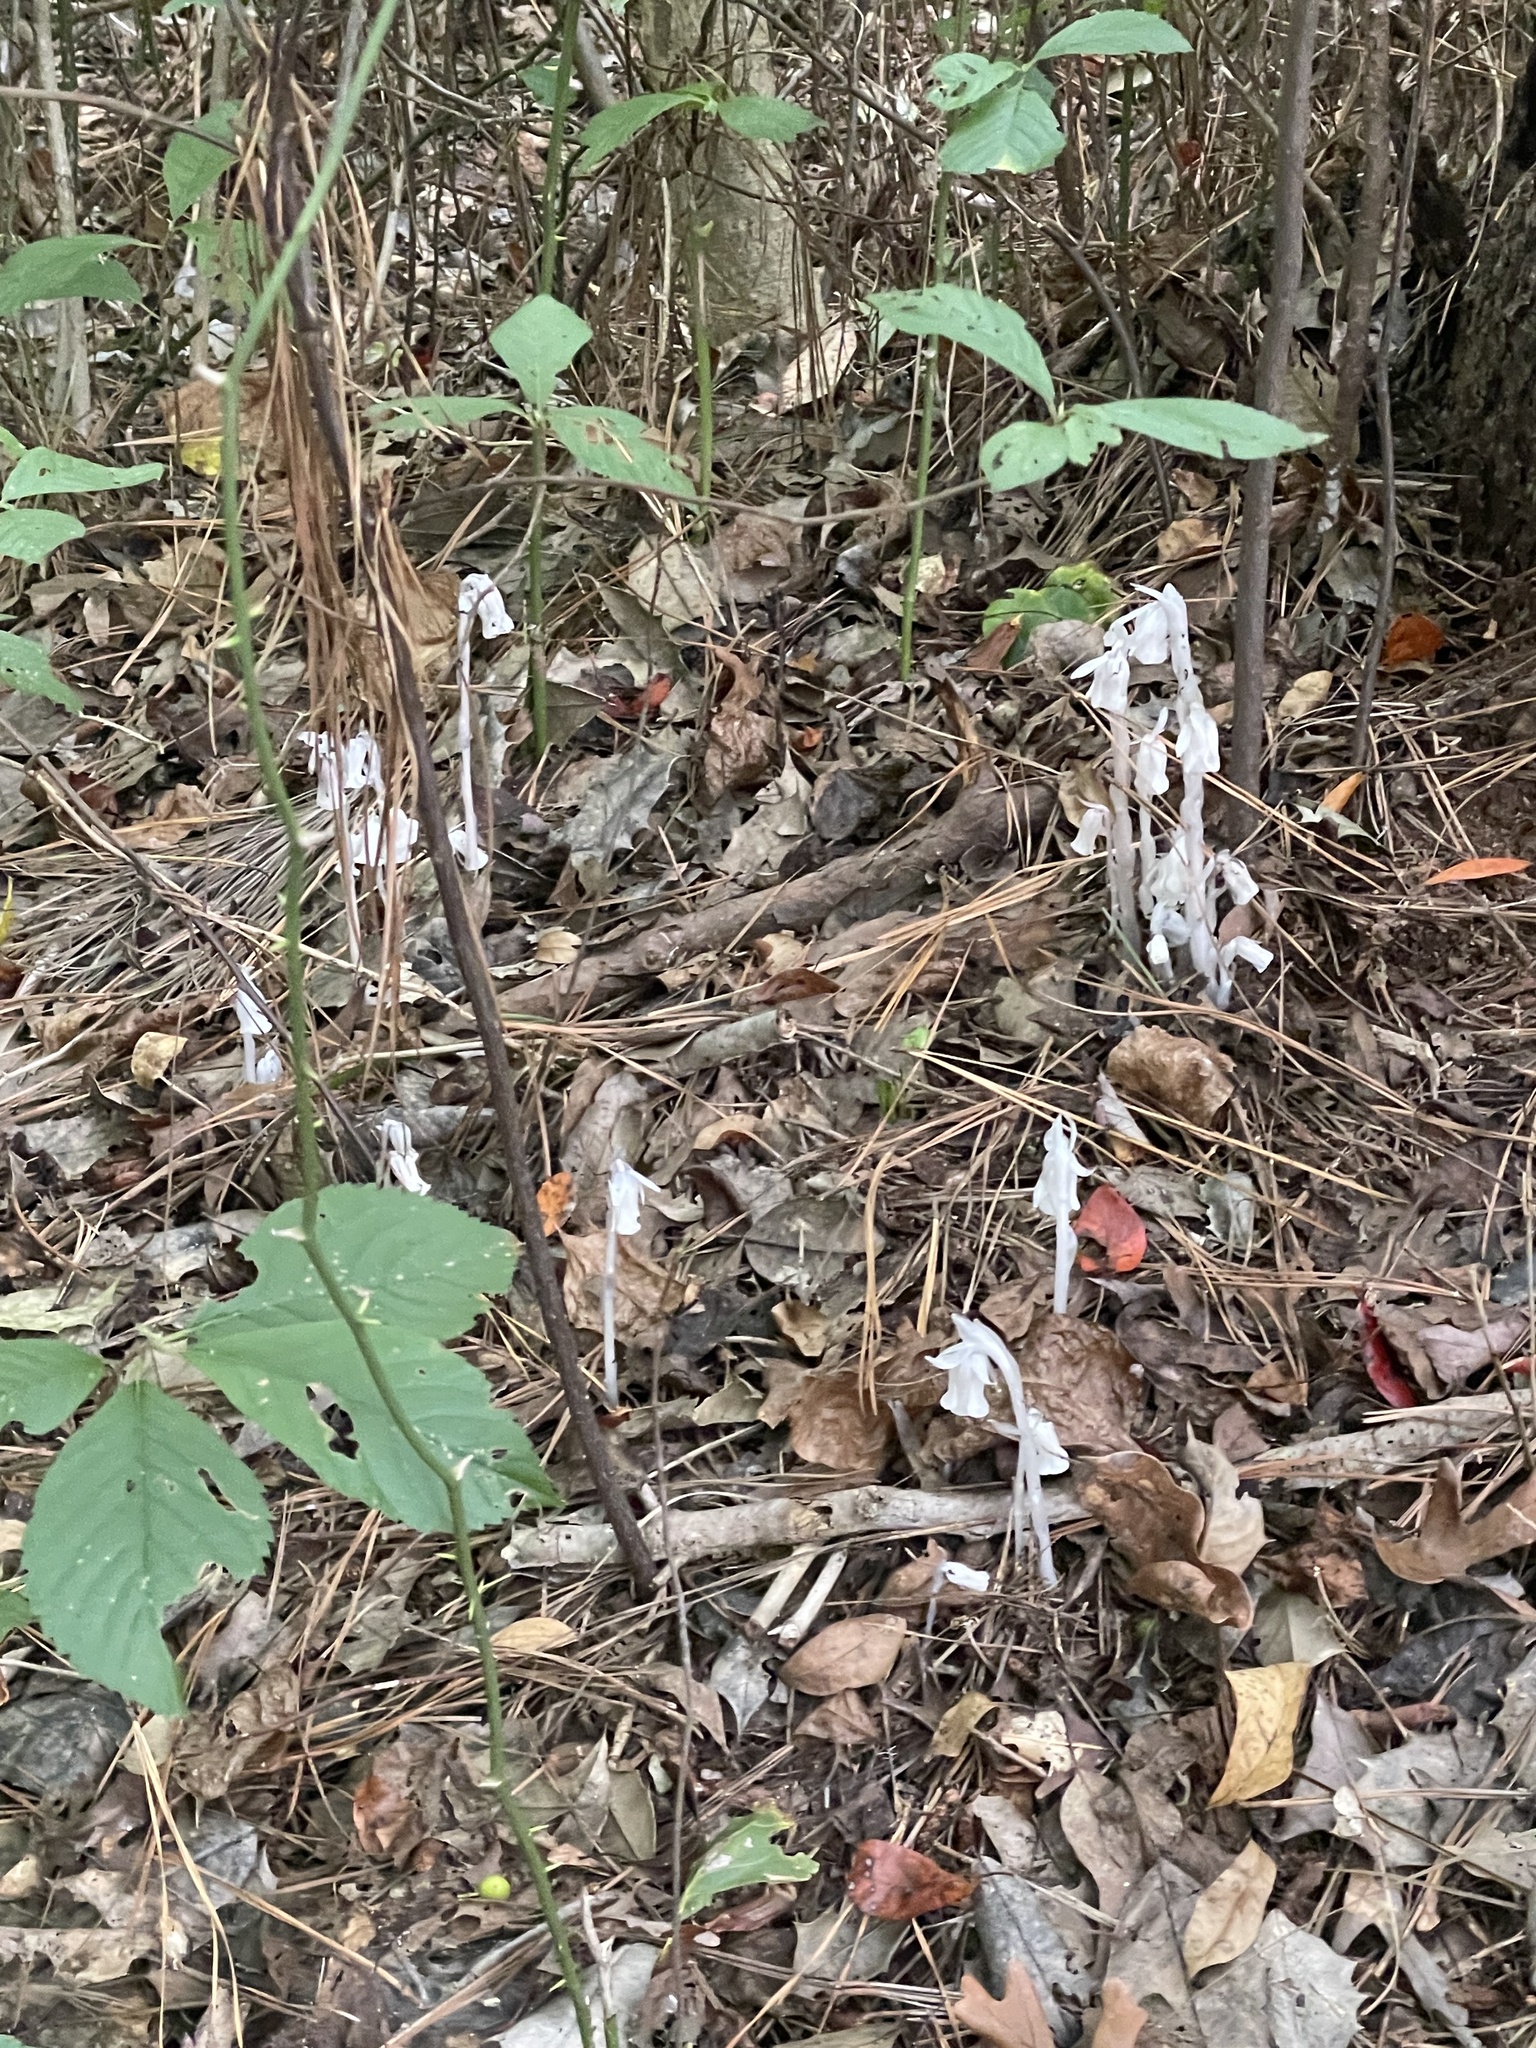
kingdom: Plantae
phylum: Tracheophyta
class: Magnoliopsida
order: Ericales
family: Ericaceae
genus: Monotropa
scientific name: Monotropa uniflora
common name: Convulsion root
